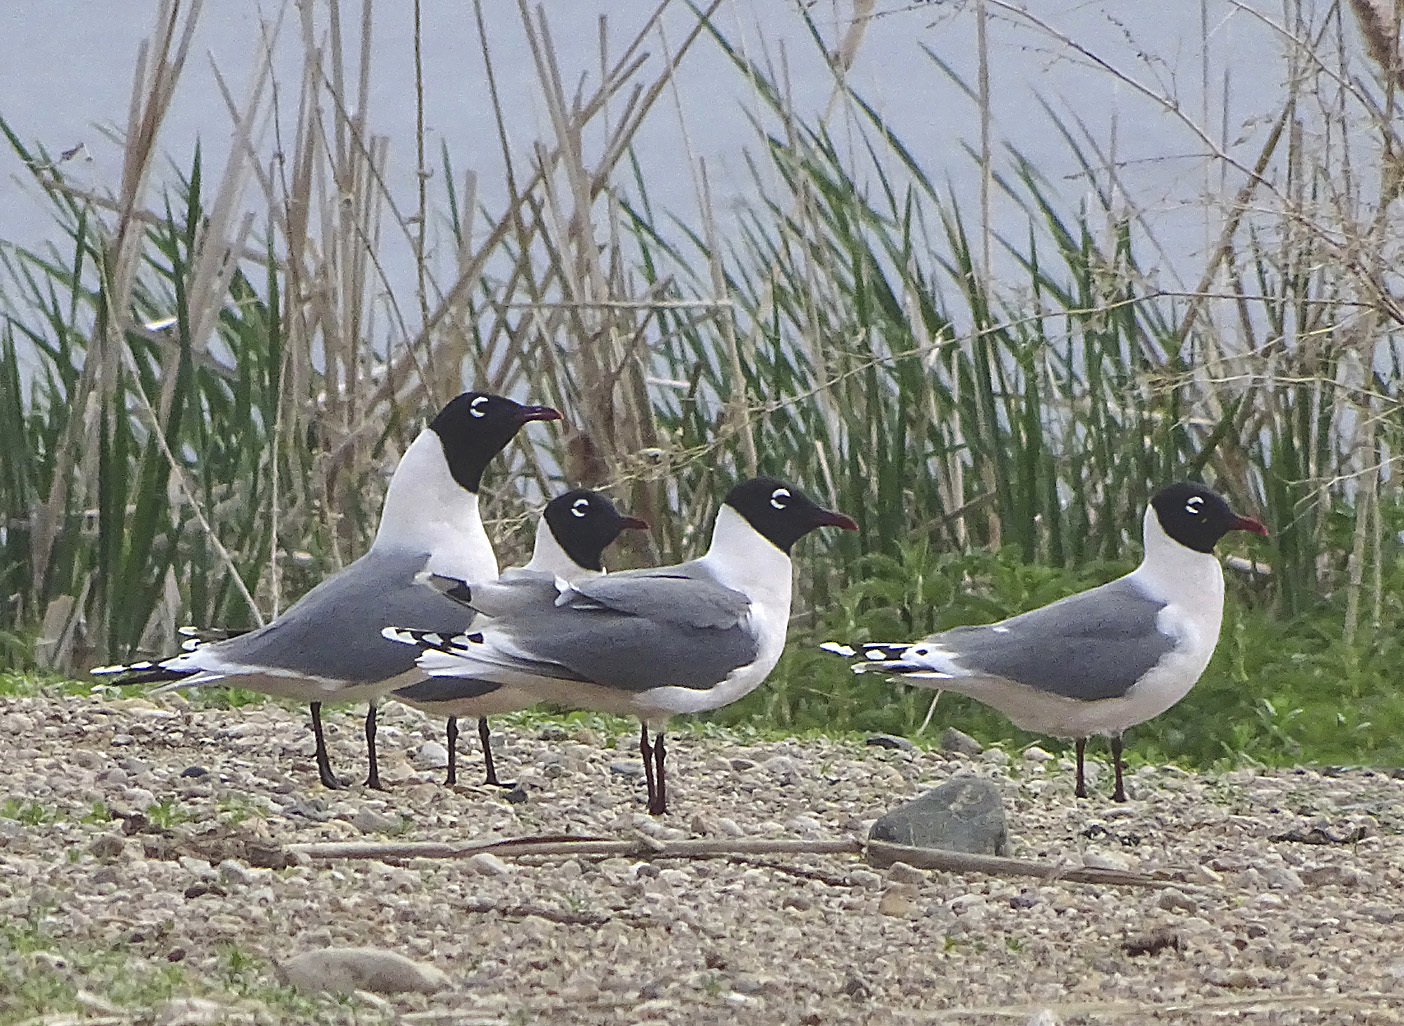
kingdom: Animalia
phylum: Chordata
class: Aves
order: Charadriiformes
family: Laridae
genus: Leucophaeus
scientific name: Leucophaeus pipixcan
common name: Franklin's gull
